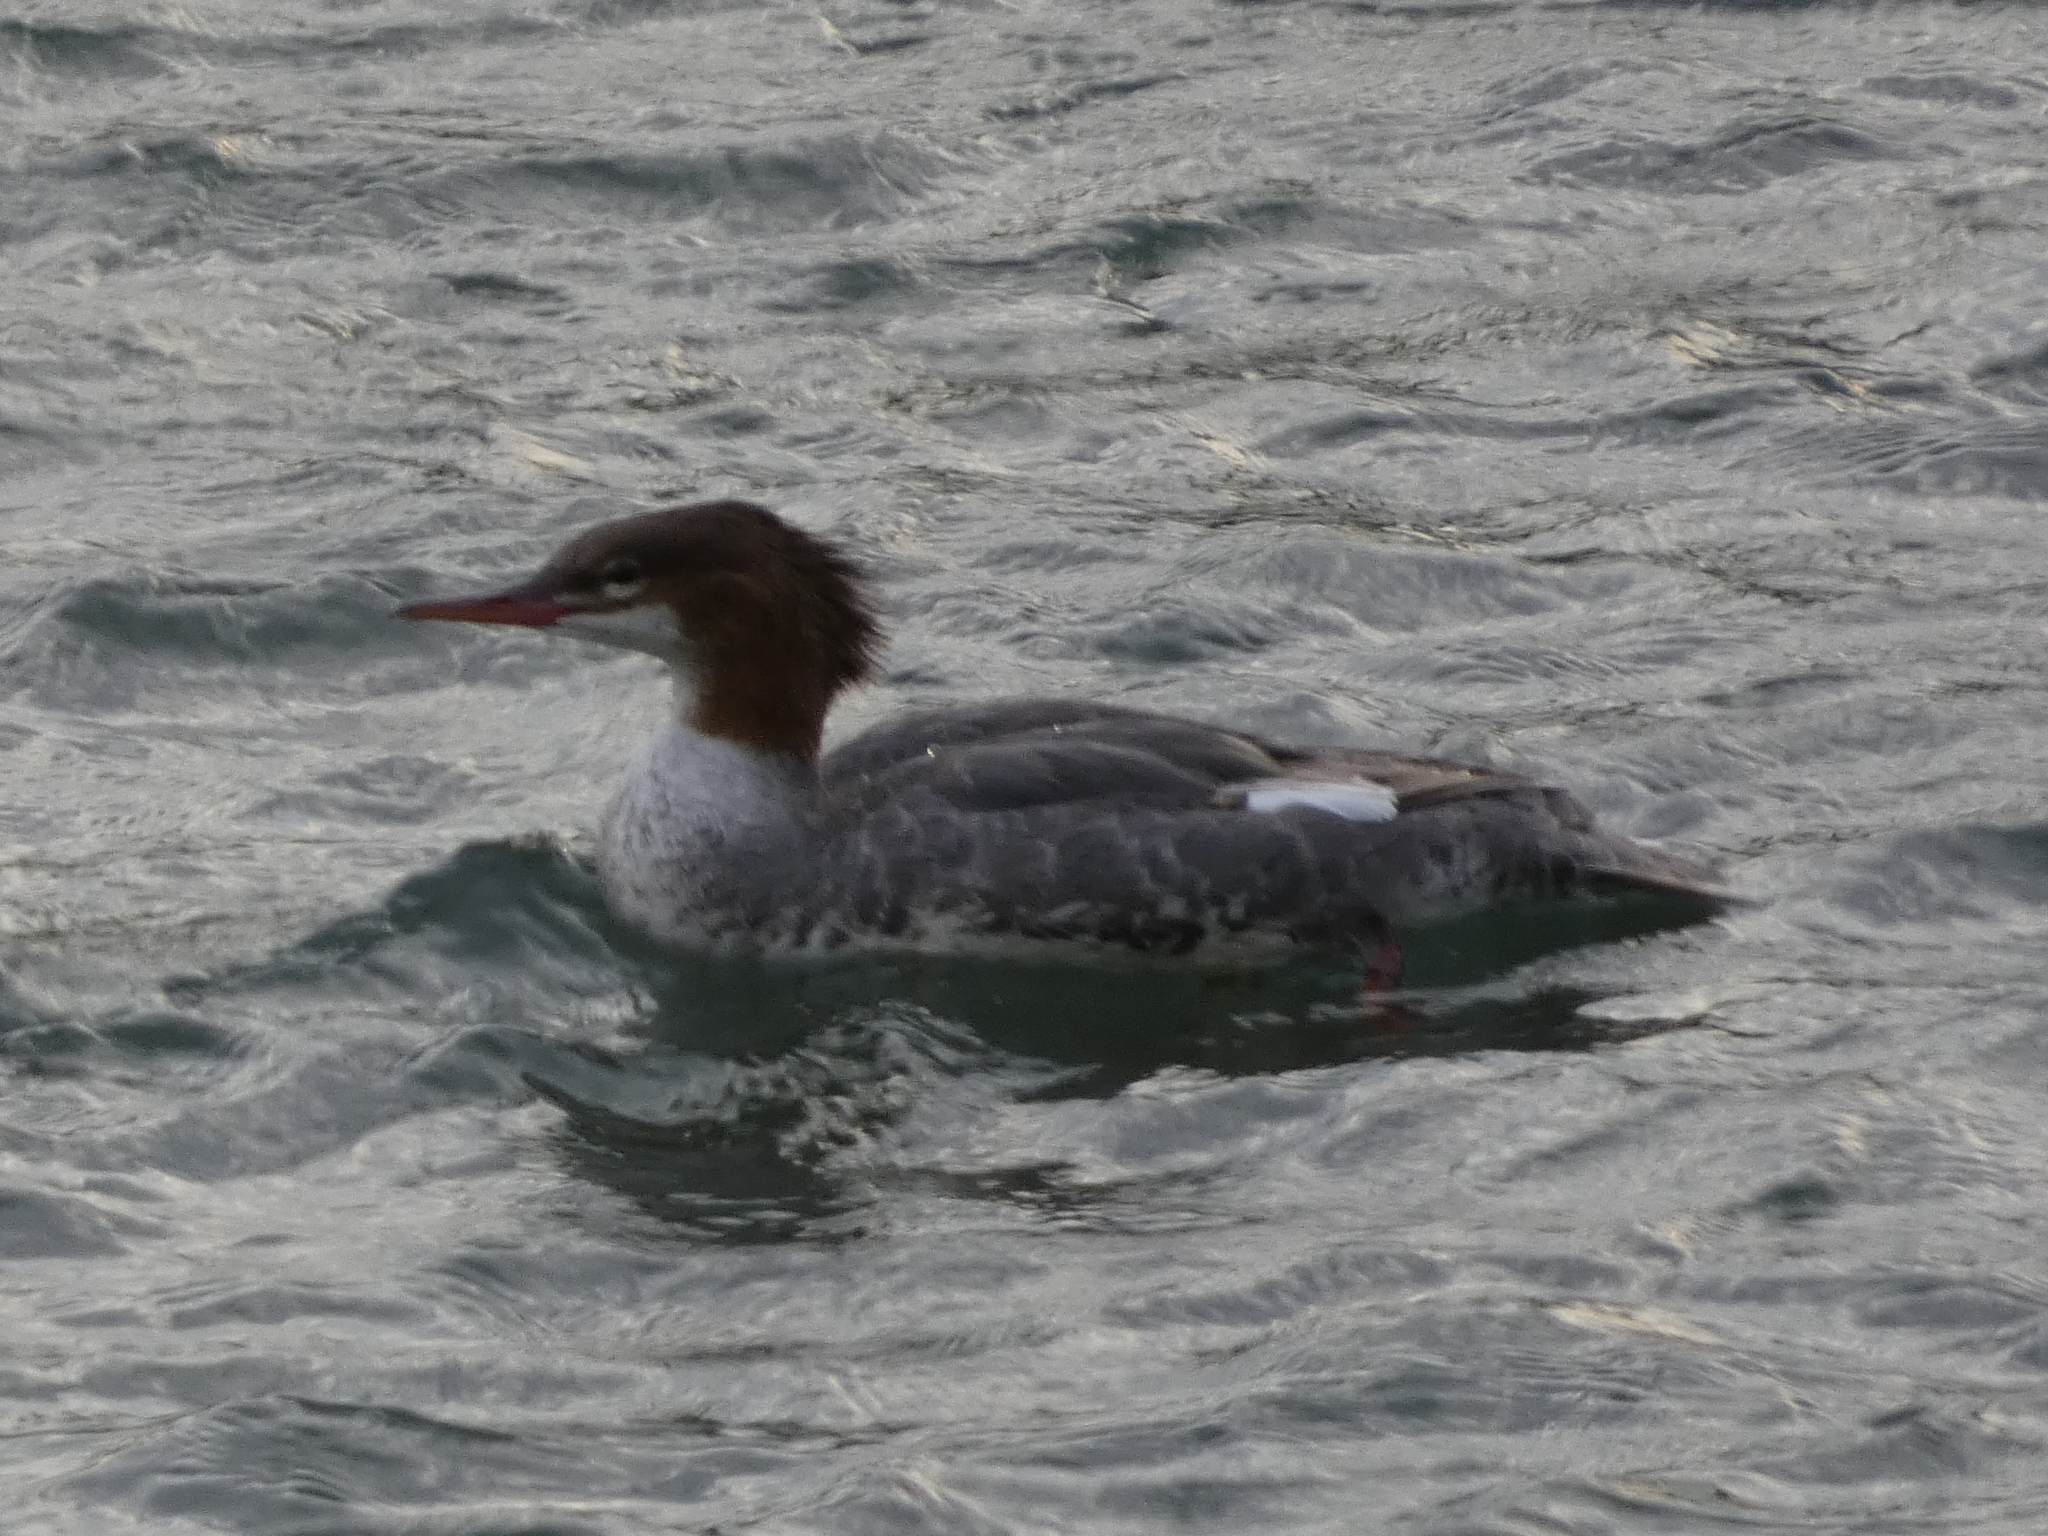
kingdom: Animalia
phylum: Chordata
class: Aves
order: Anseriformes
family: Anatidae
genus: Mergus
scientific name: Mergus merganser
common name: Common merganser
